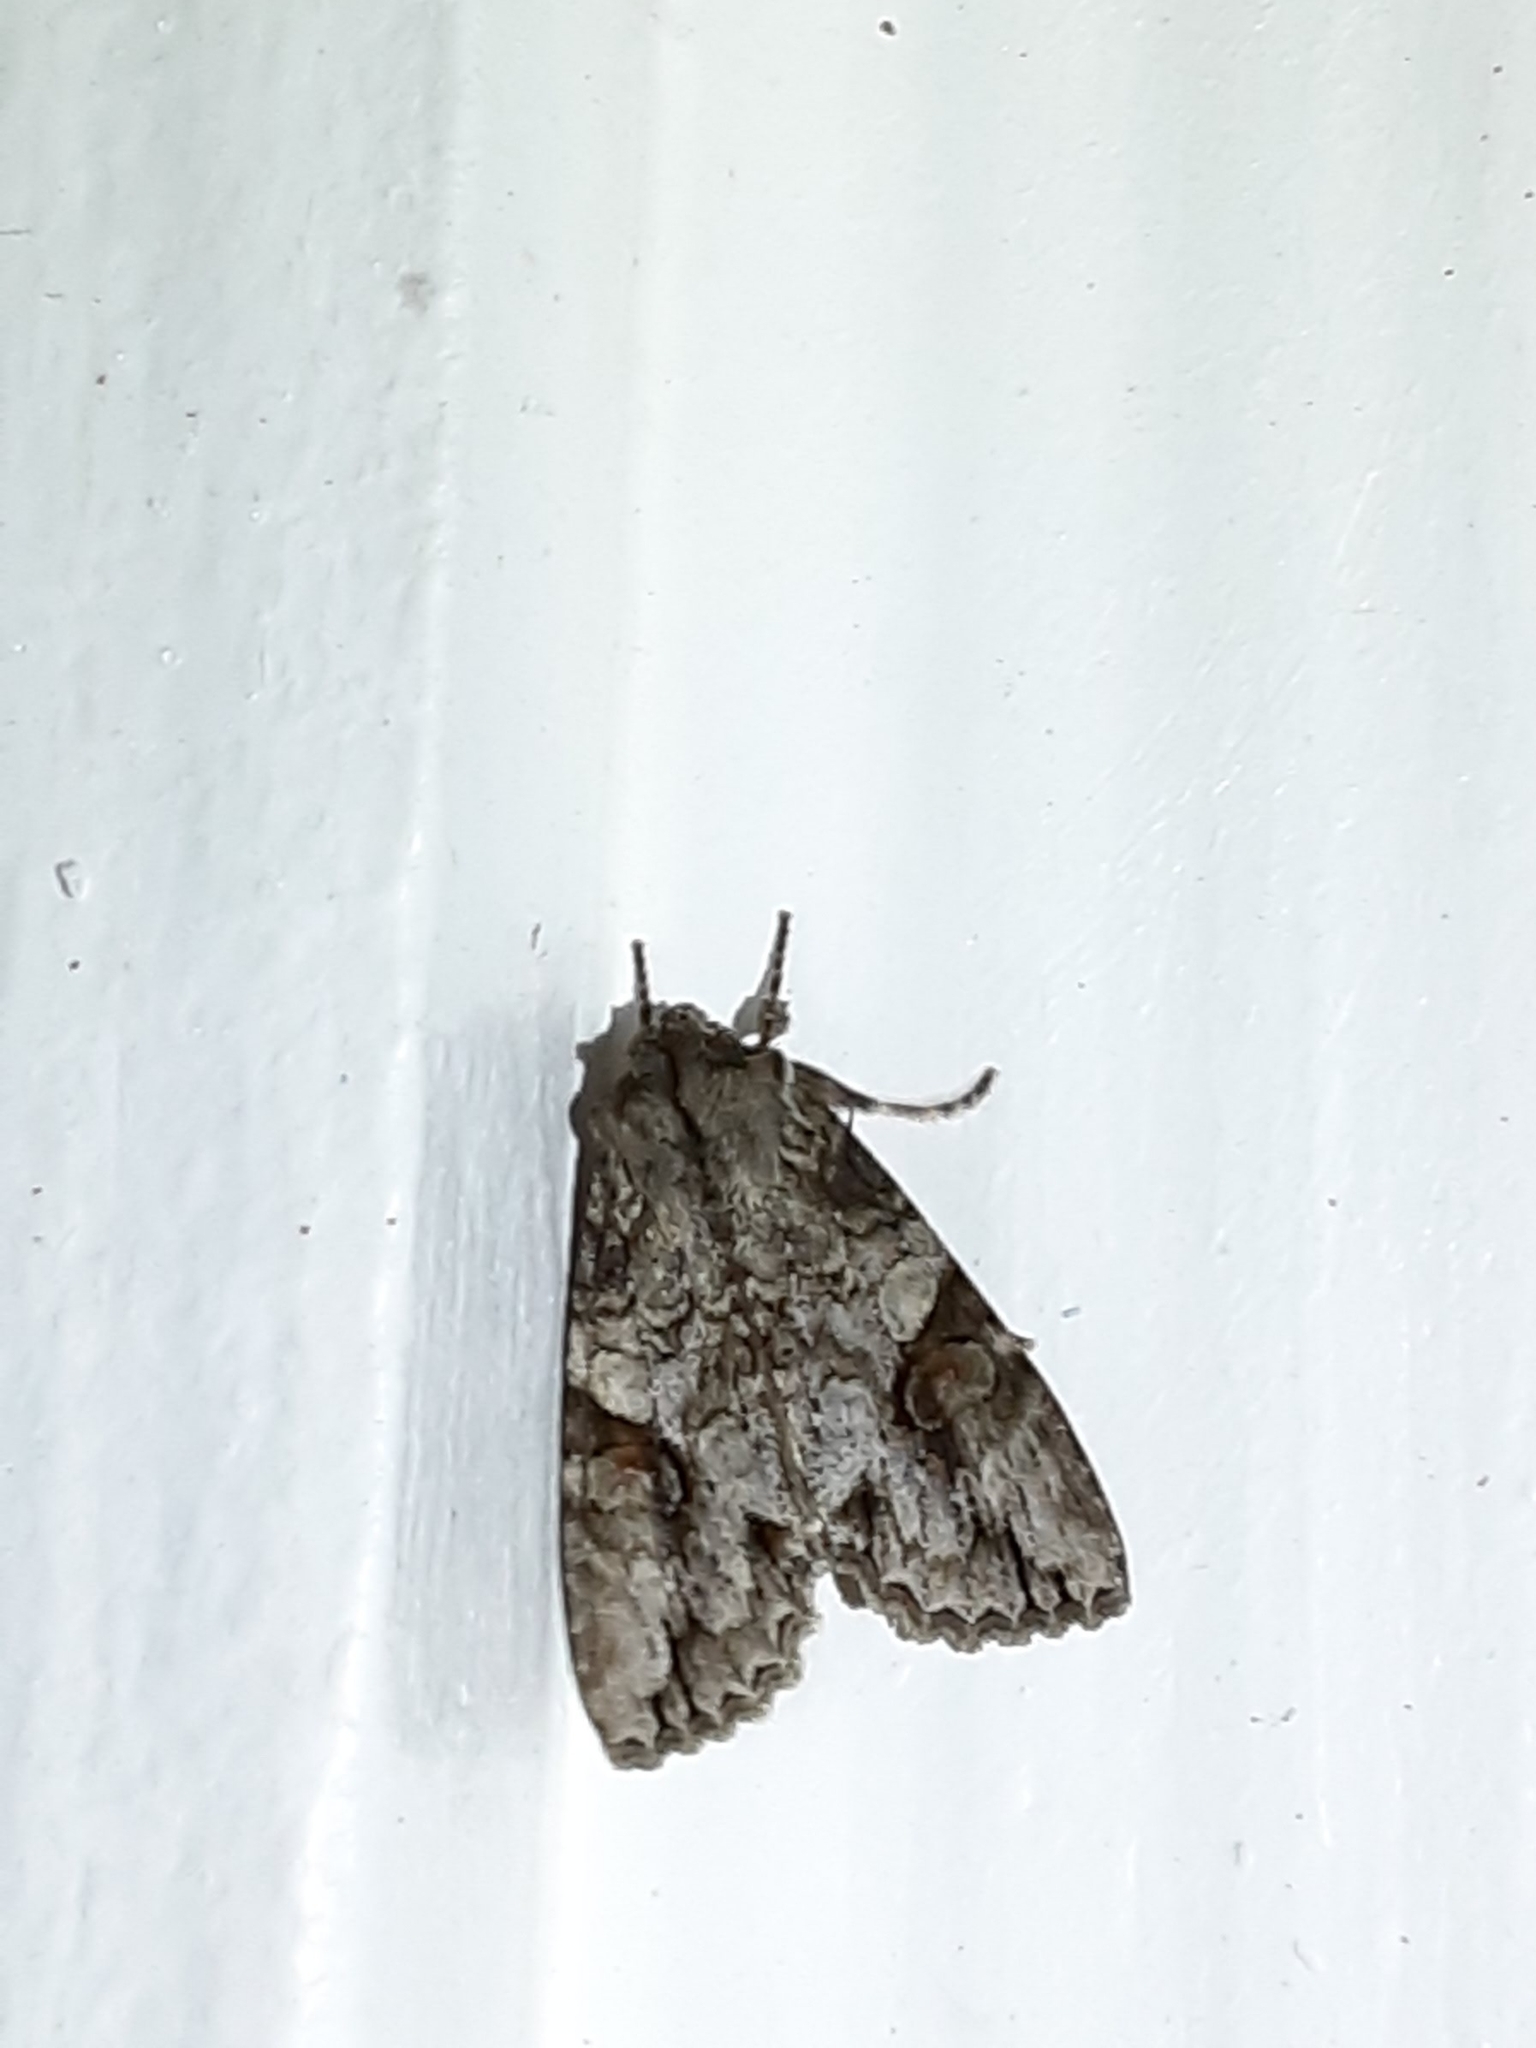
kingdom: Animalia
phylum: Arthropoda
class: Insecta
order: Lepidoptera
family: Noctuidae
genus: Achatia
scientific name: Achatia latex
